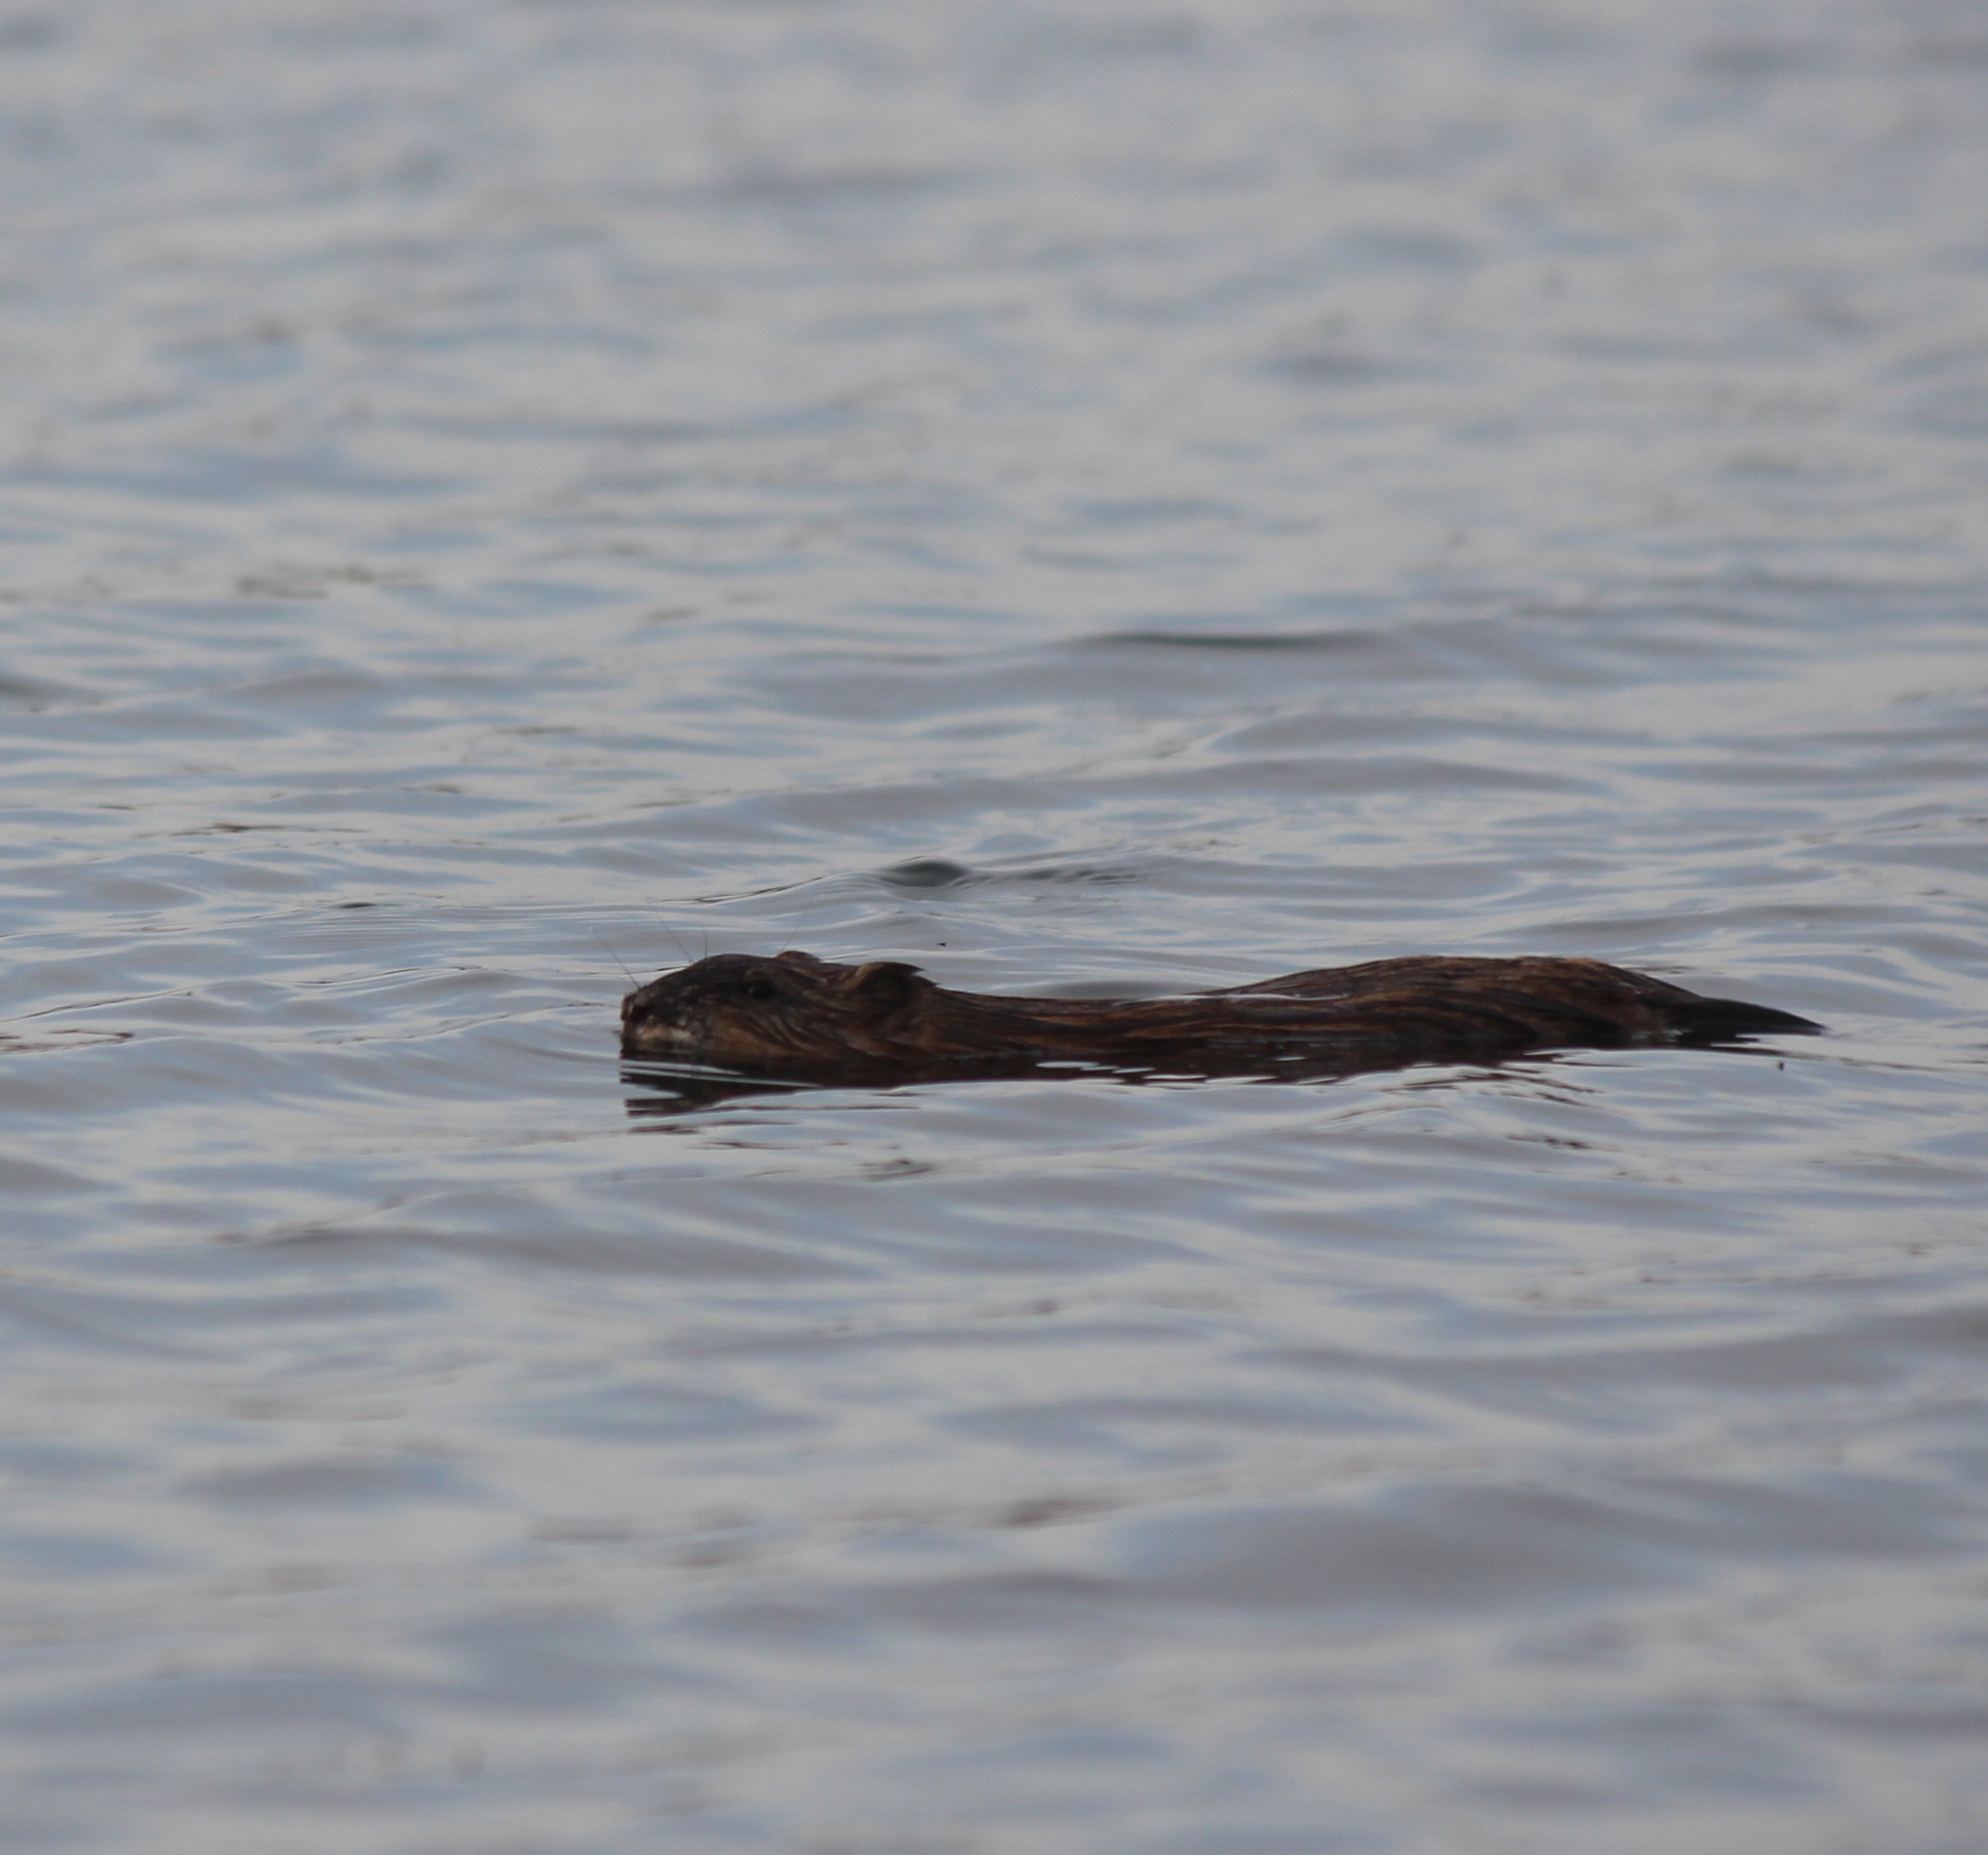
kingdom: Animalia
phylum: Chordata
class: Mammalia
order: Rodentia
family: Cricetidae
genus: Ondatra
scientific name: Ondatra zibethicus
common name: Muskrat
